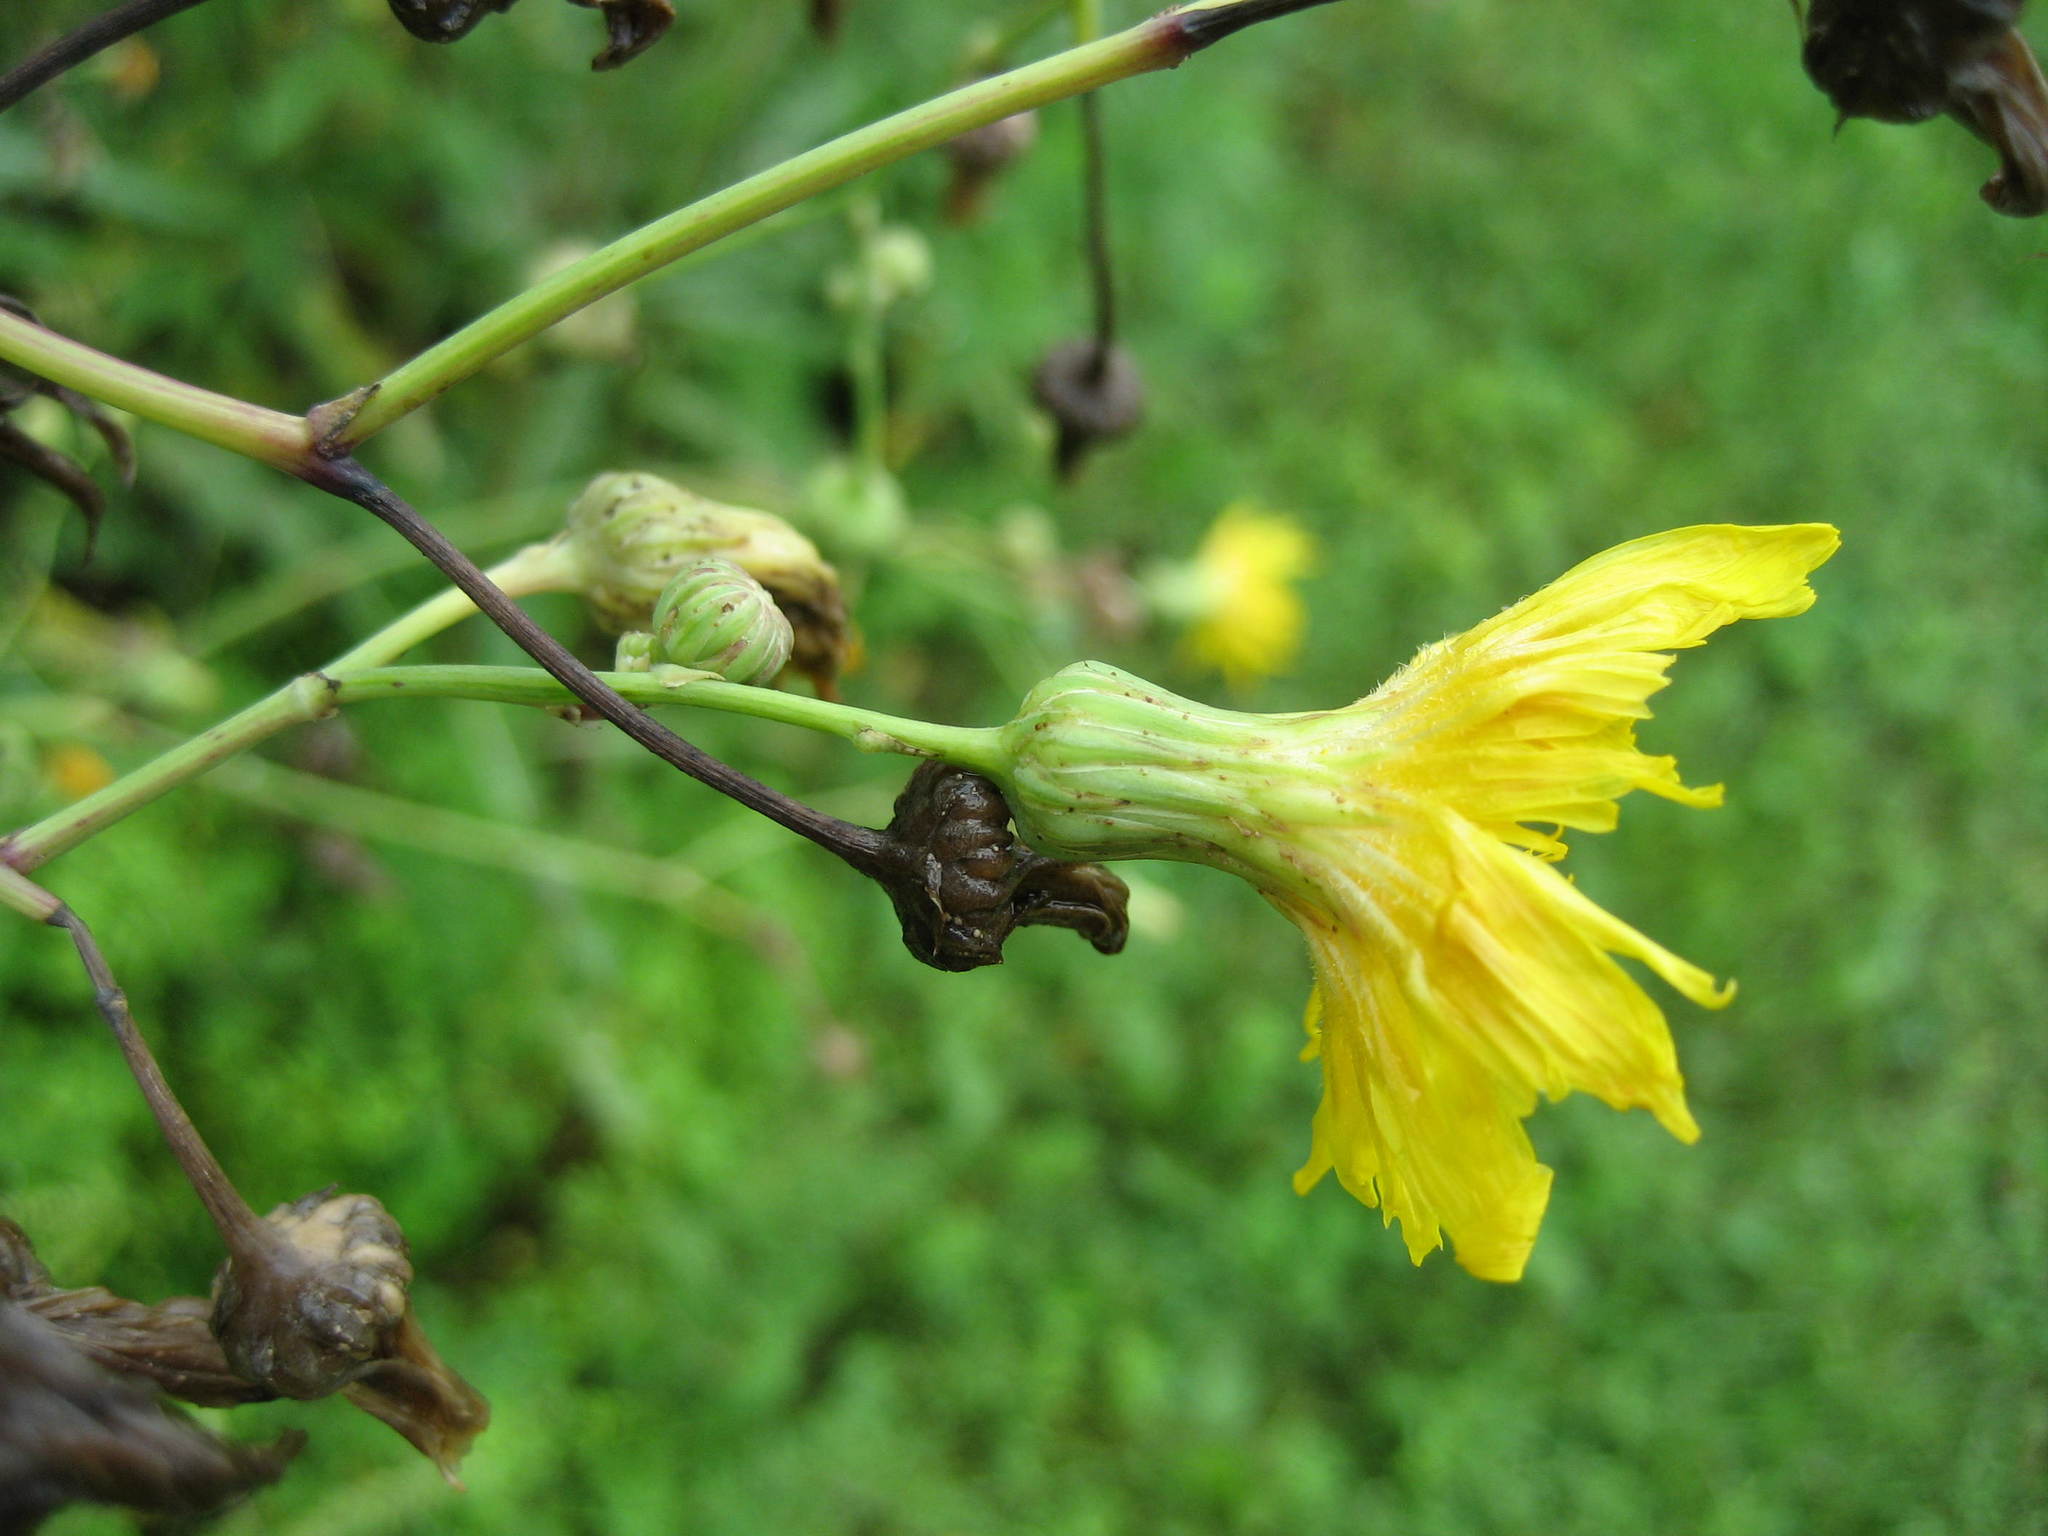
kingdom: Plantae
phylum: Tracheophyta
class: Magnoliopsida
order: Asterales
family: Asteraceae
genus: Sonchus
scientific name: Sonchus arvensis
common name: Perennial sow-thistle
